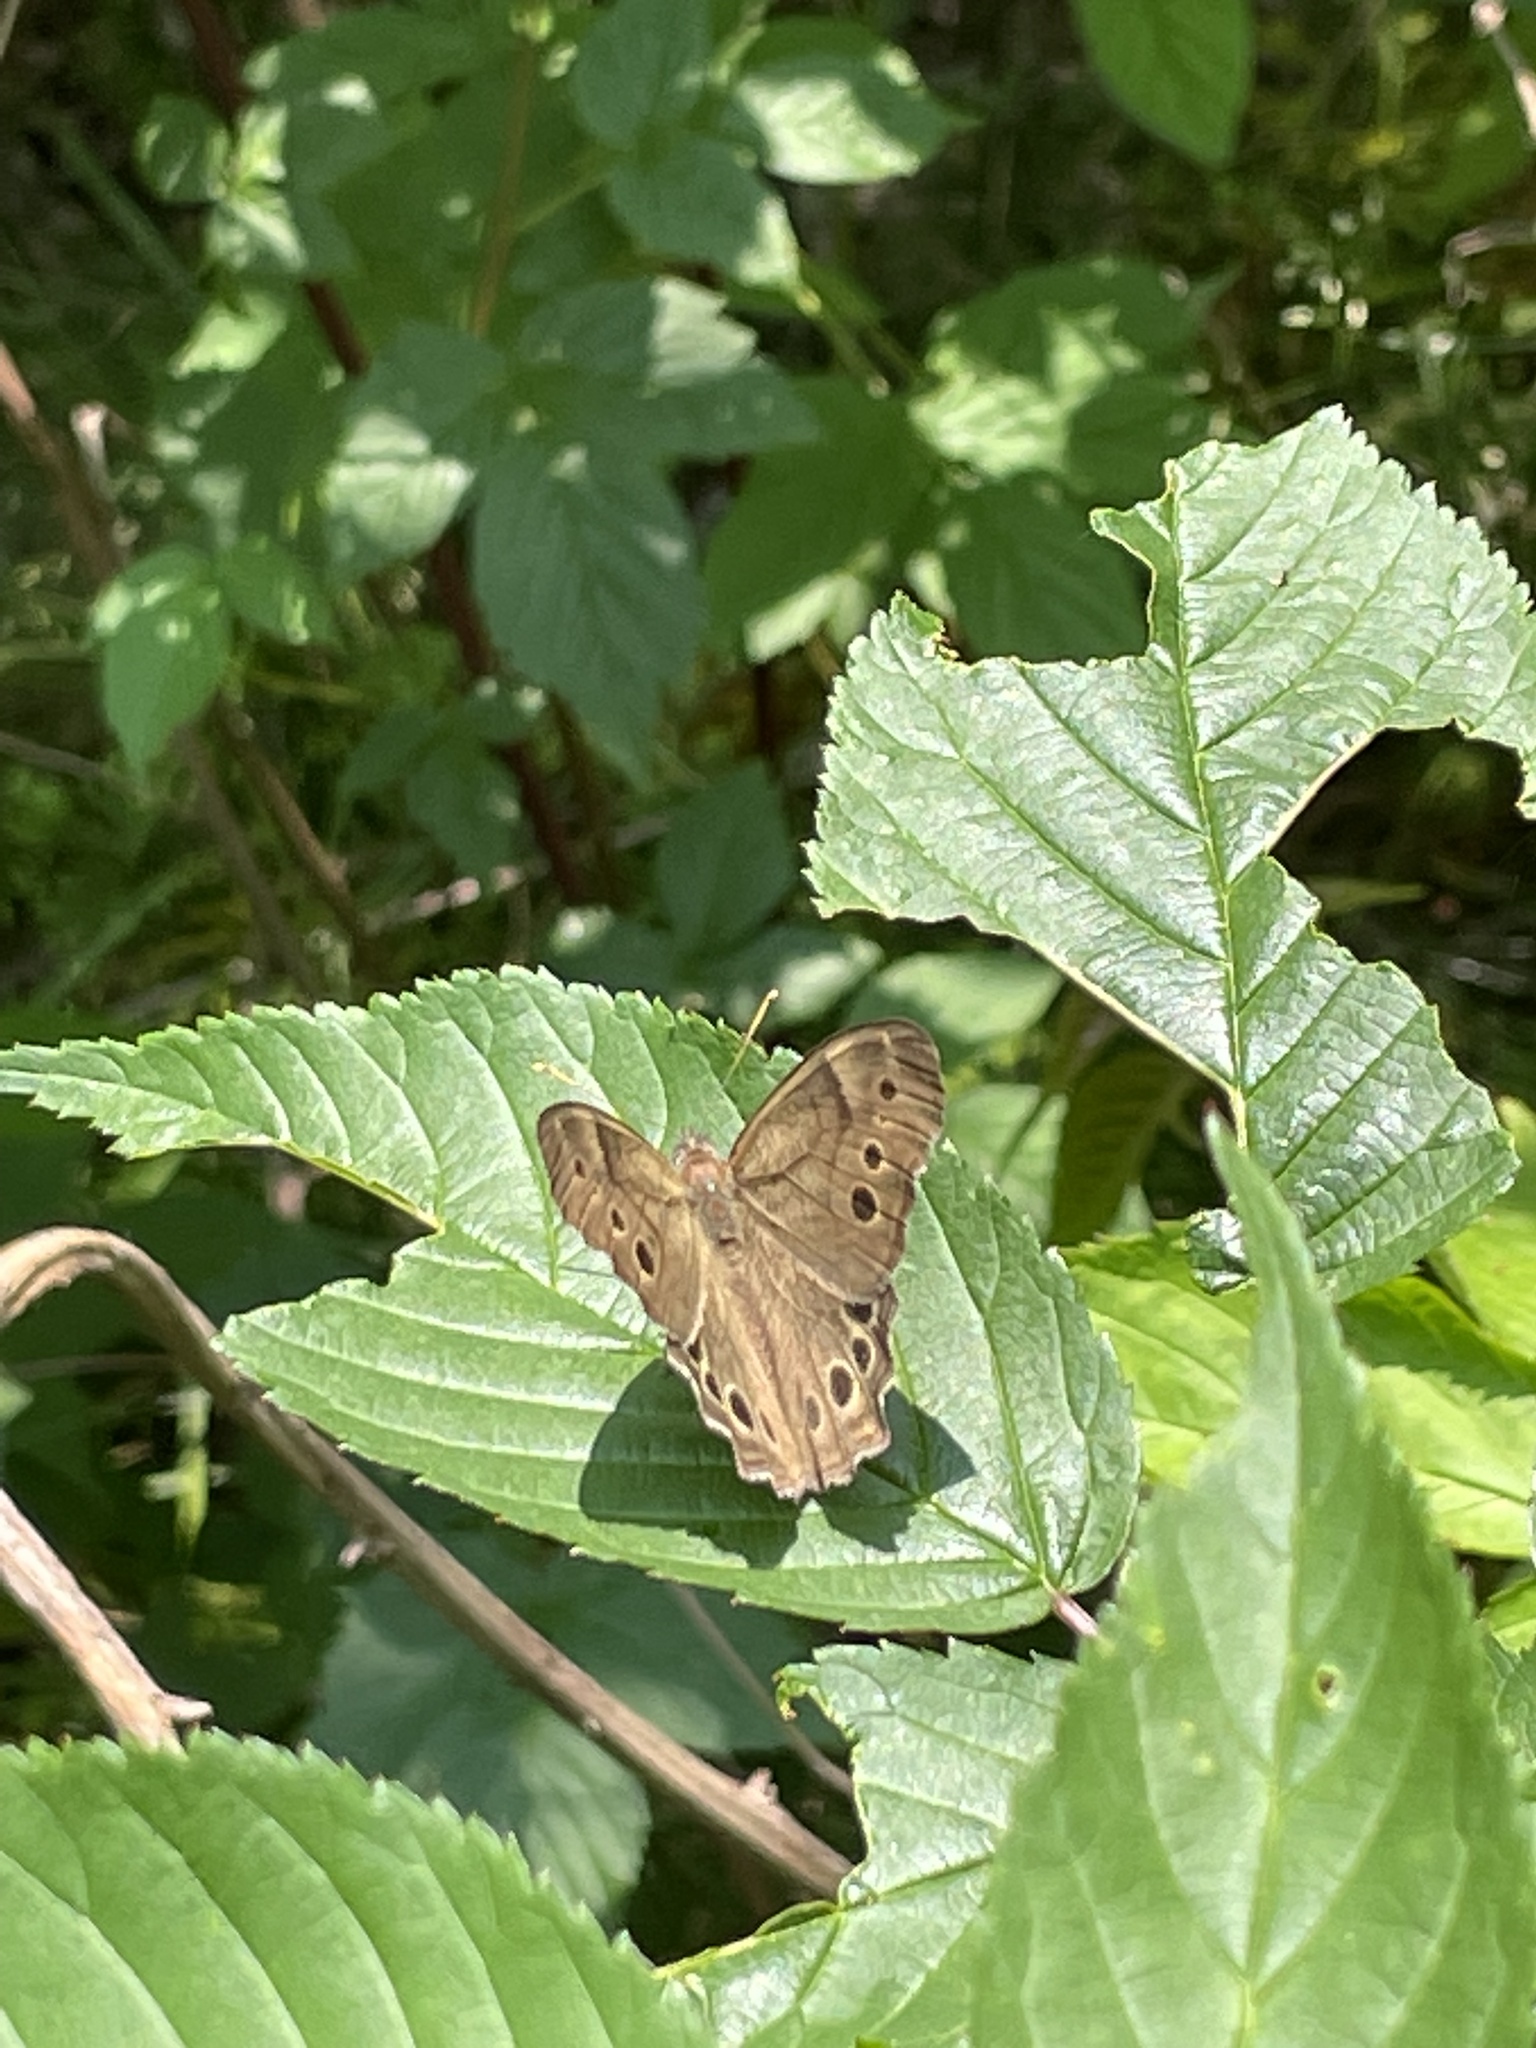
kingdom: Animalia
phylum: Arthropoda
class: Insecta
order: Lepidoptera
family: Nymphalidae
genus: Lethe
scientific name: Lethe anthedon
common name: Northern pearly-eye
